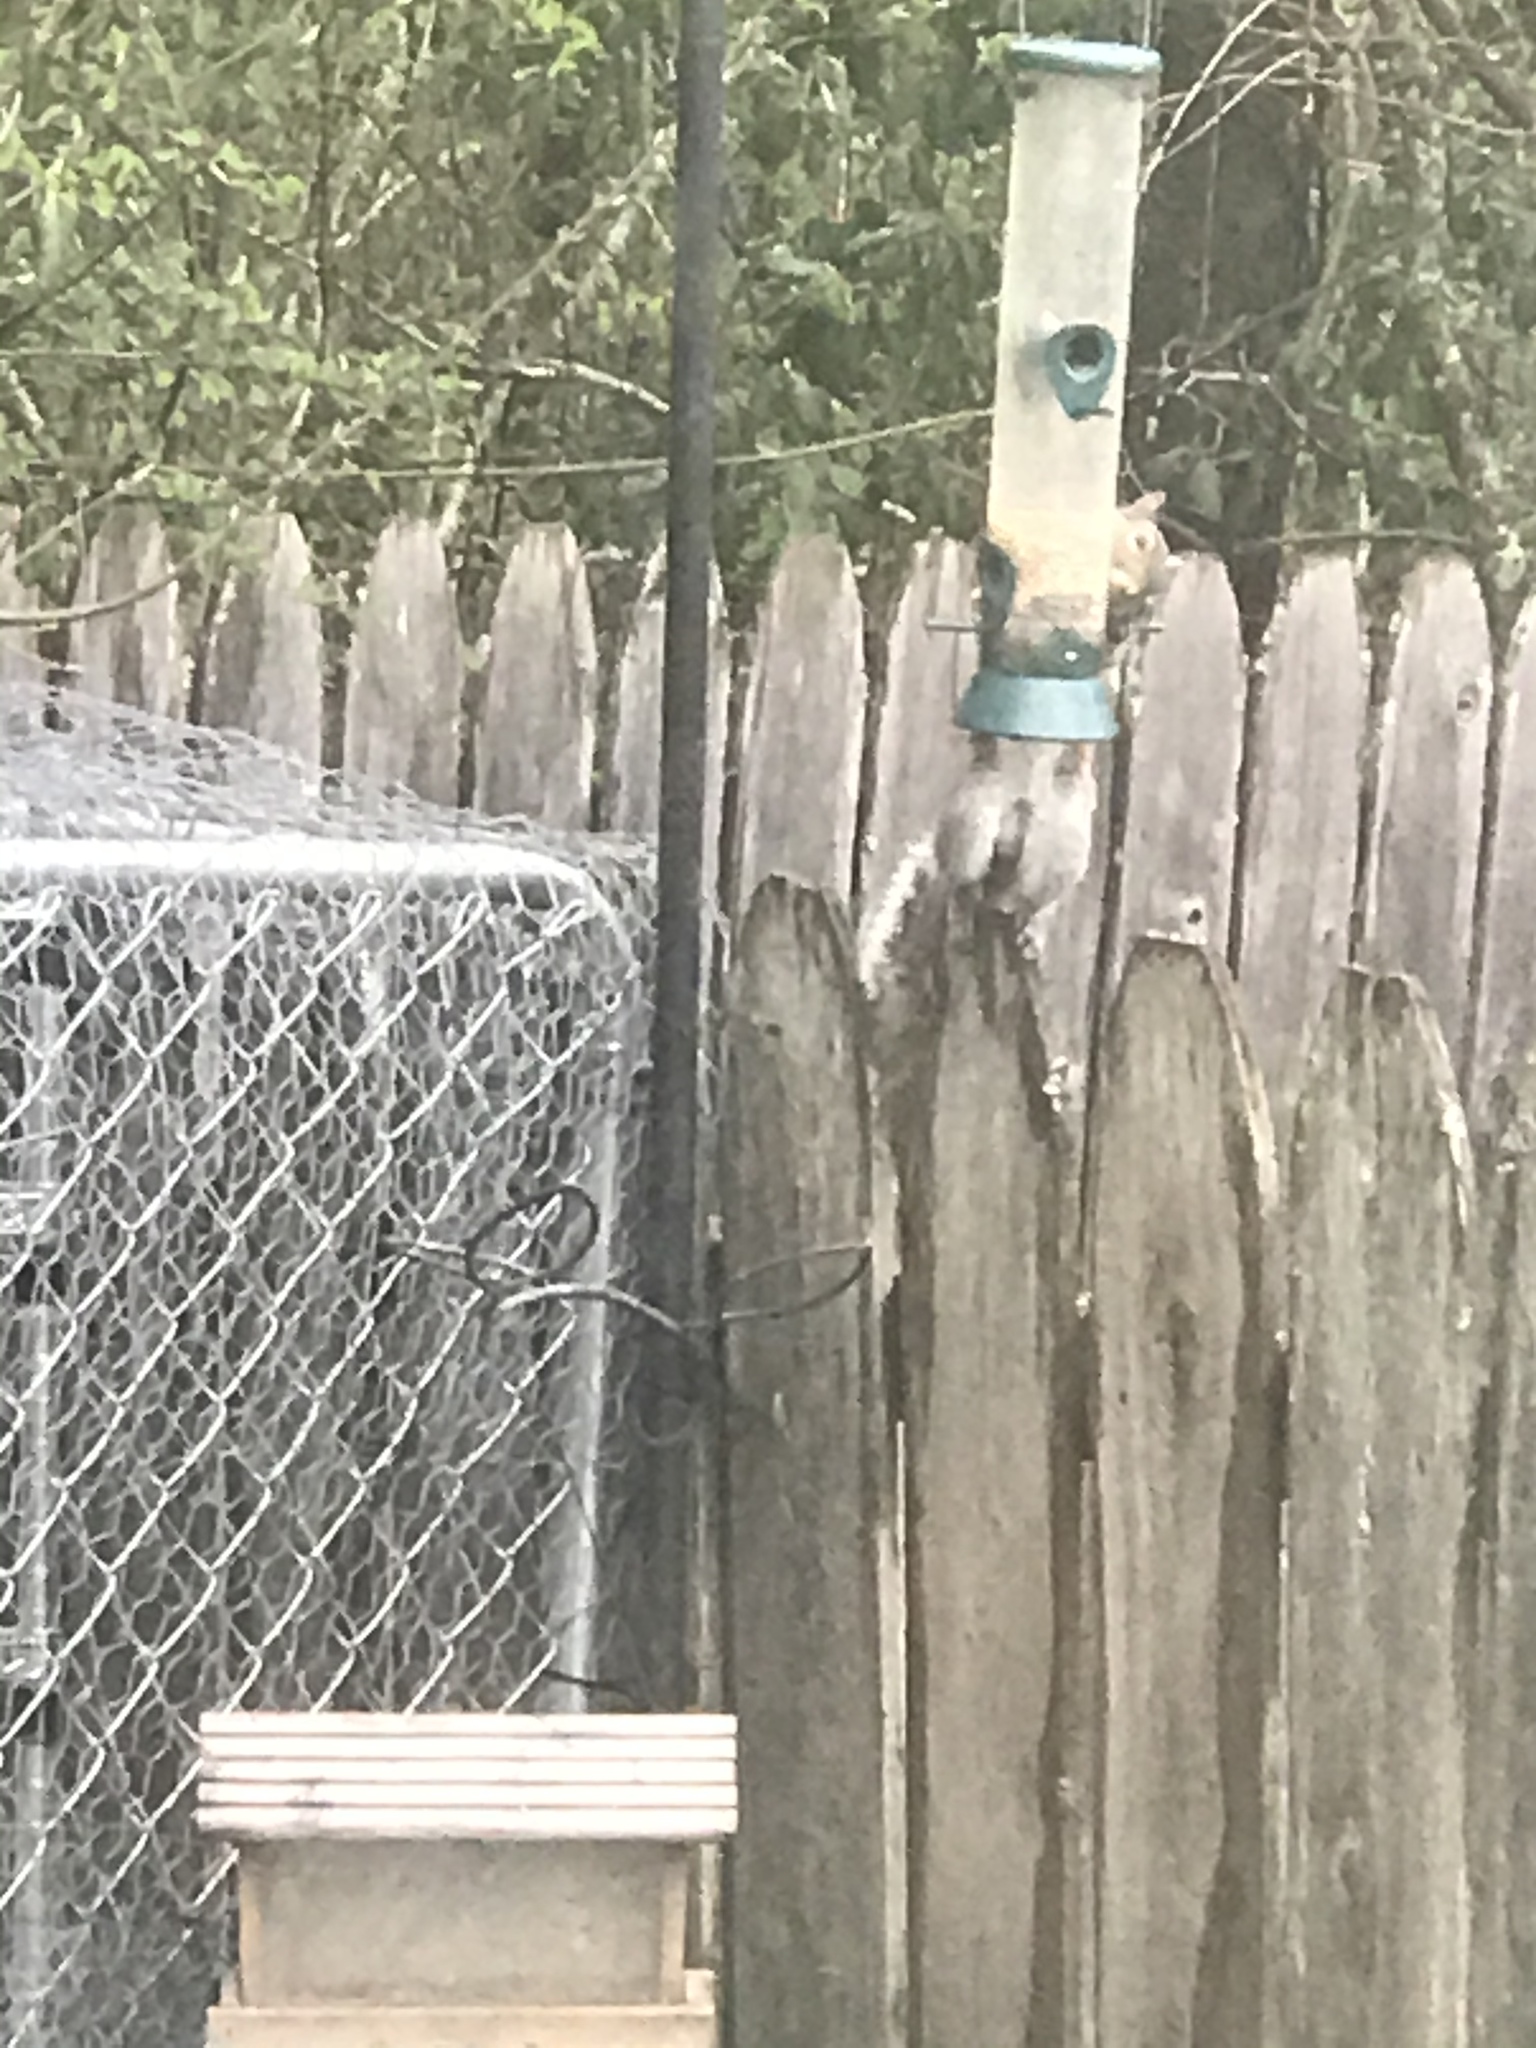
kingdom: Animalia
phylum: Chordata
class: Mammalia
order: Rodentia
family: Sciuridae
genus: Sciurus
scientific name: Sciurus carolinensis
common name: Eastern gray squirrel
